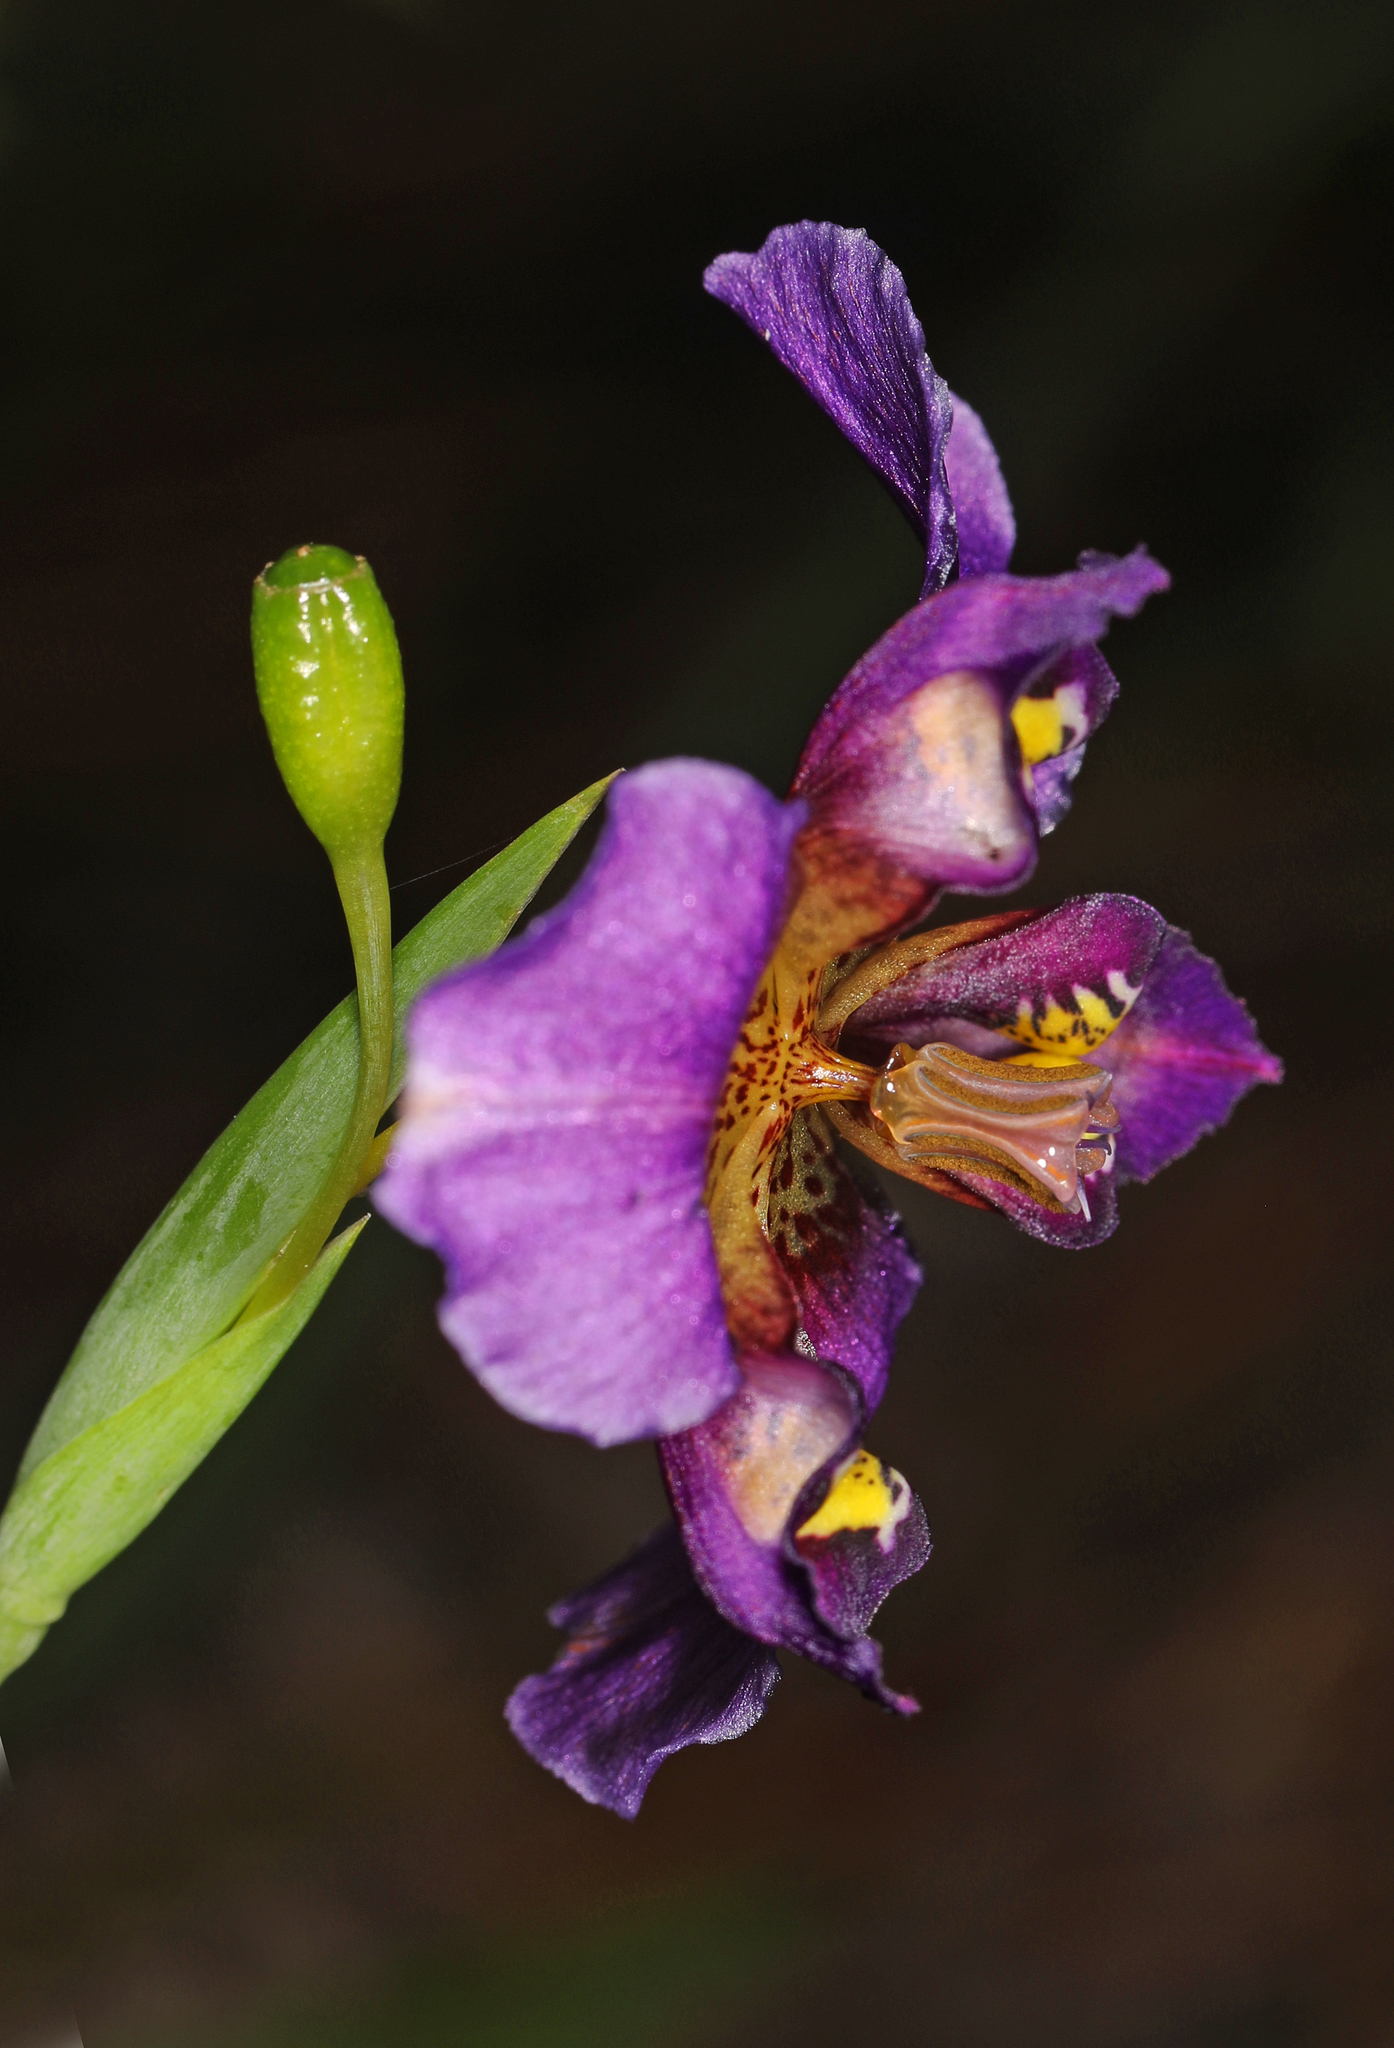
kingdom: Plantae
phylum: Tracheophyta
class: Liliopsida
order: Asparagales
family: Iridaceae
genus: Alophia
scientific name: Alophia drummondii
